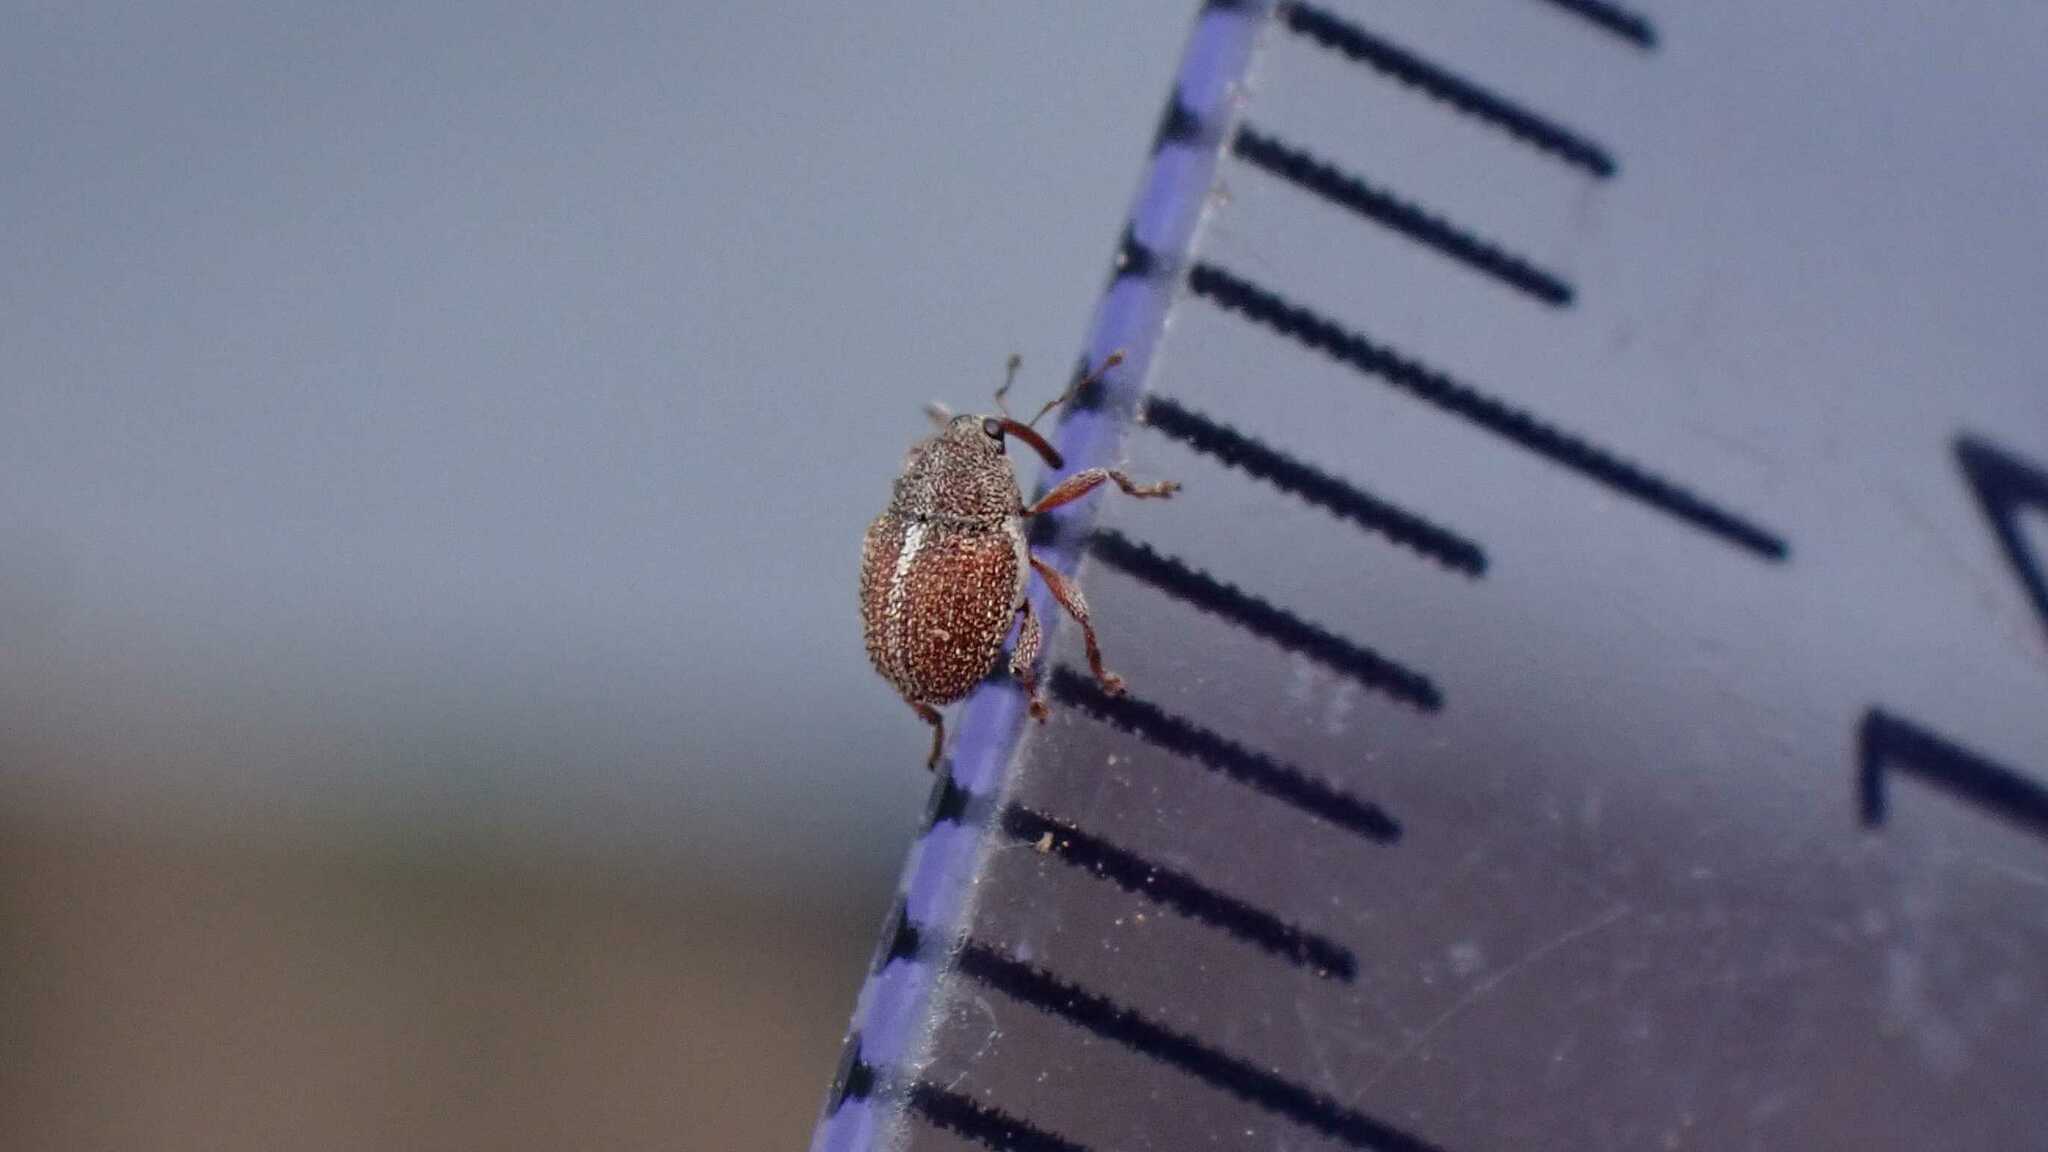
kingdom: Animalia
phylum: Arthropoda
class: Insecta
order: Coleoptera
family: Curculionidae
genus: Micrelus
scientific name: Micrelus ericae
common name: Small heather weevil
